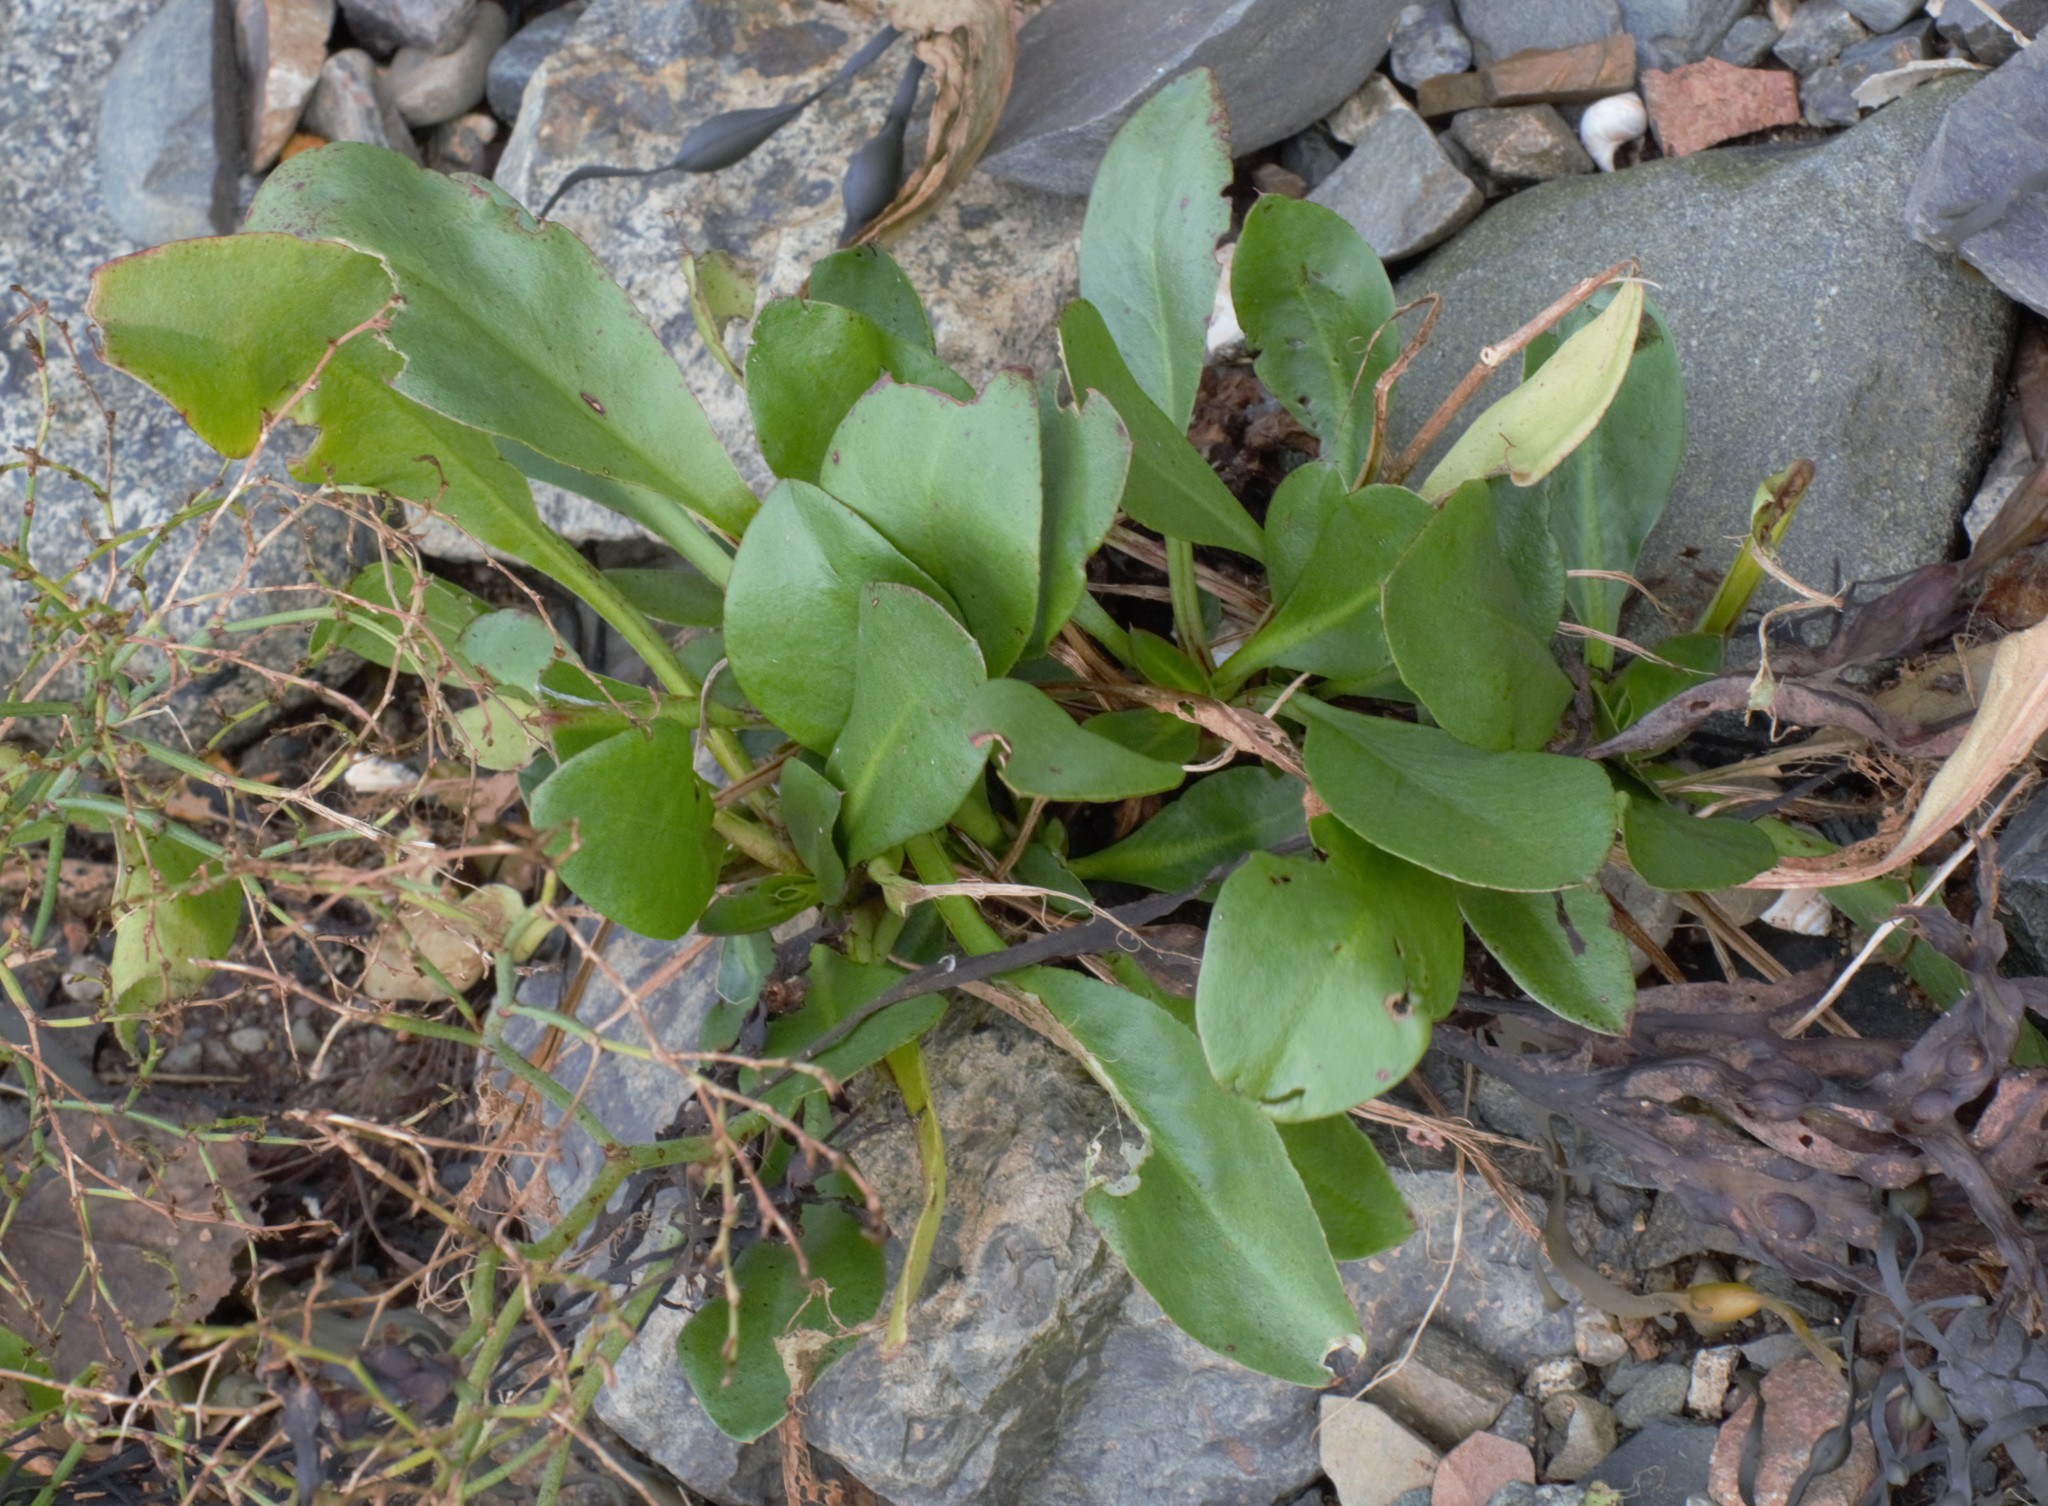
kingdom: Plantae
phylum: Tracheophyta
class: Magnoliopsida
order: Caryophyllales
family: Plumbaginaceae
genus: Limonium
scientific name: Limonium carolinianum
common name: Carolina sea lavender
